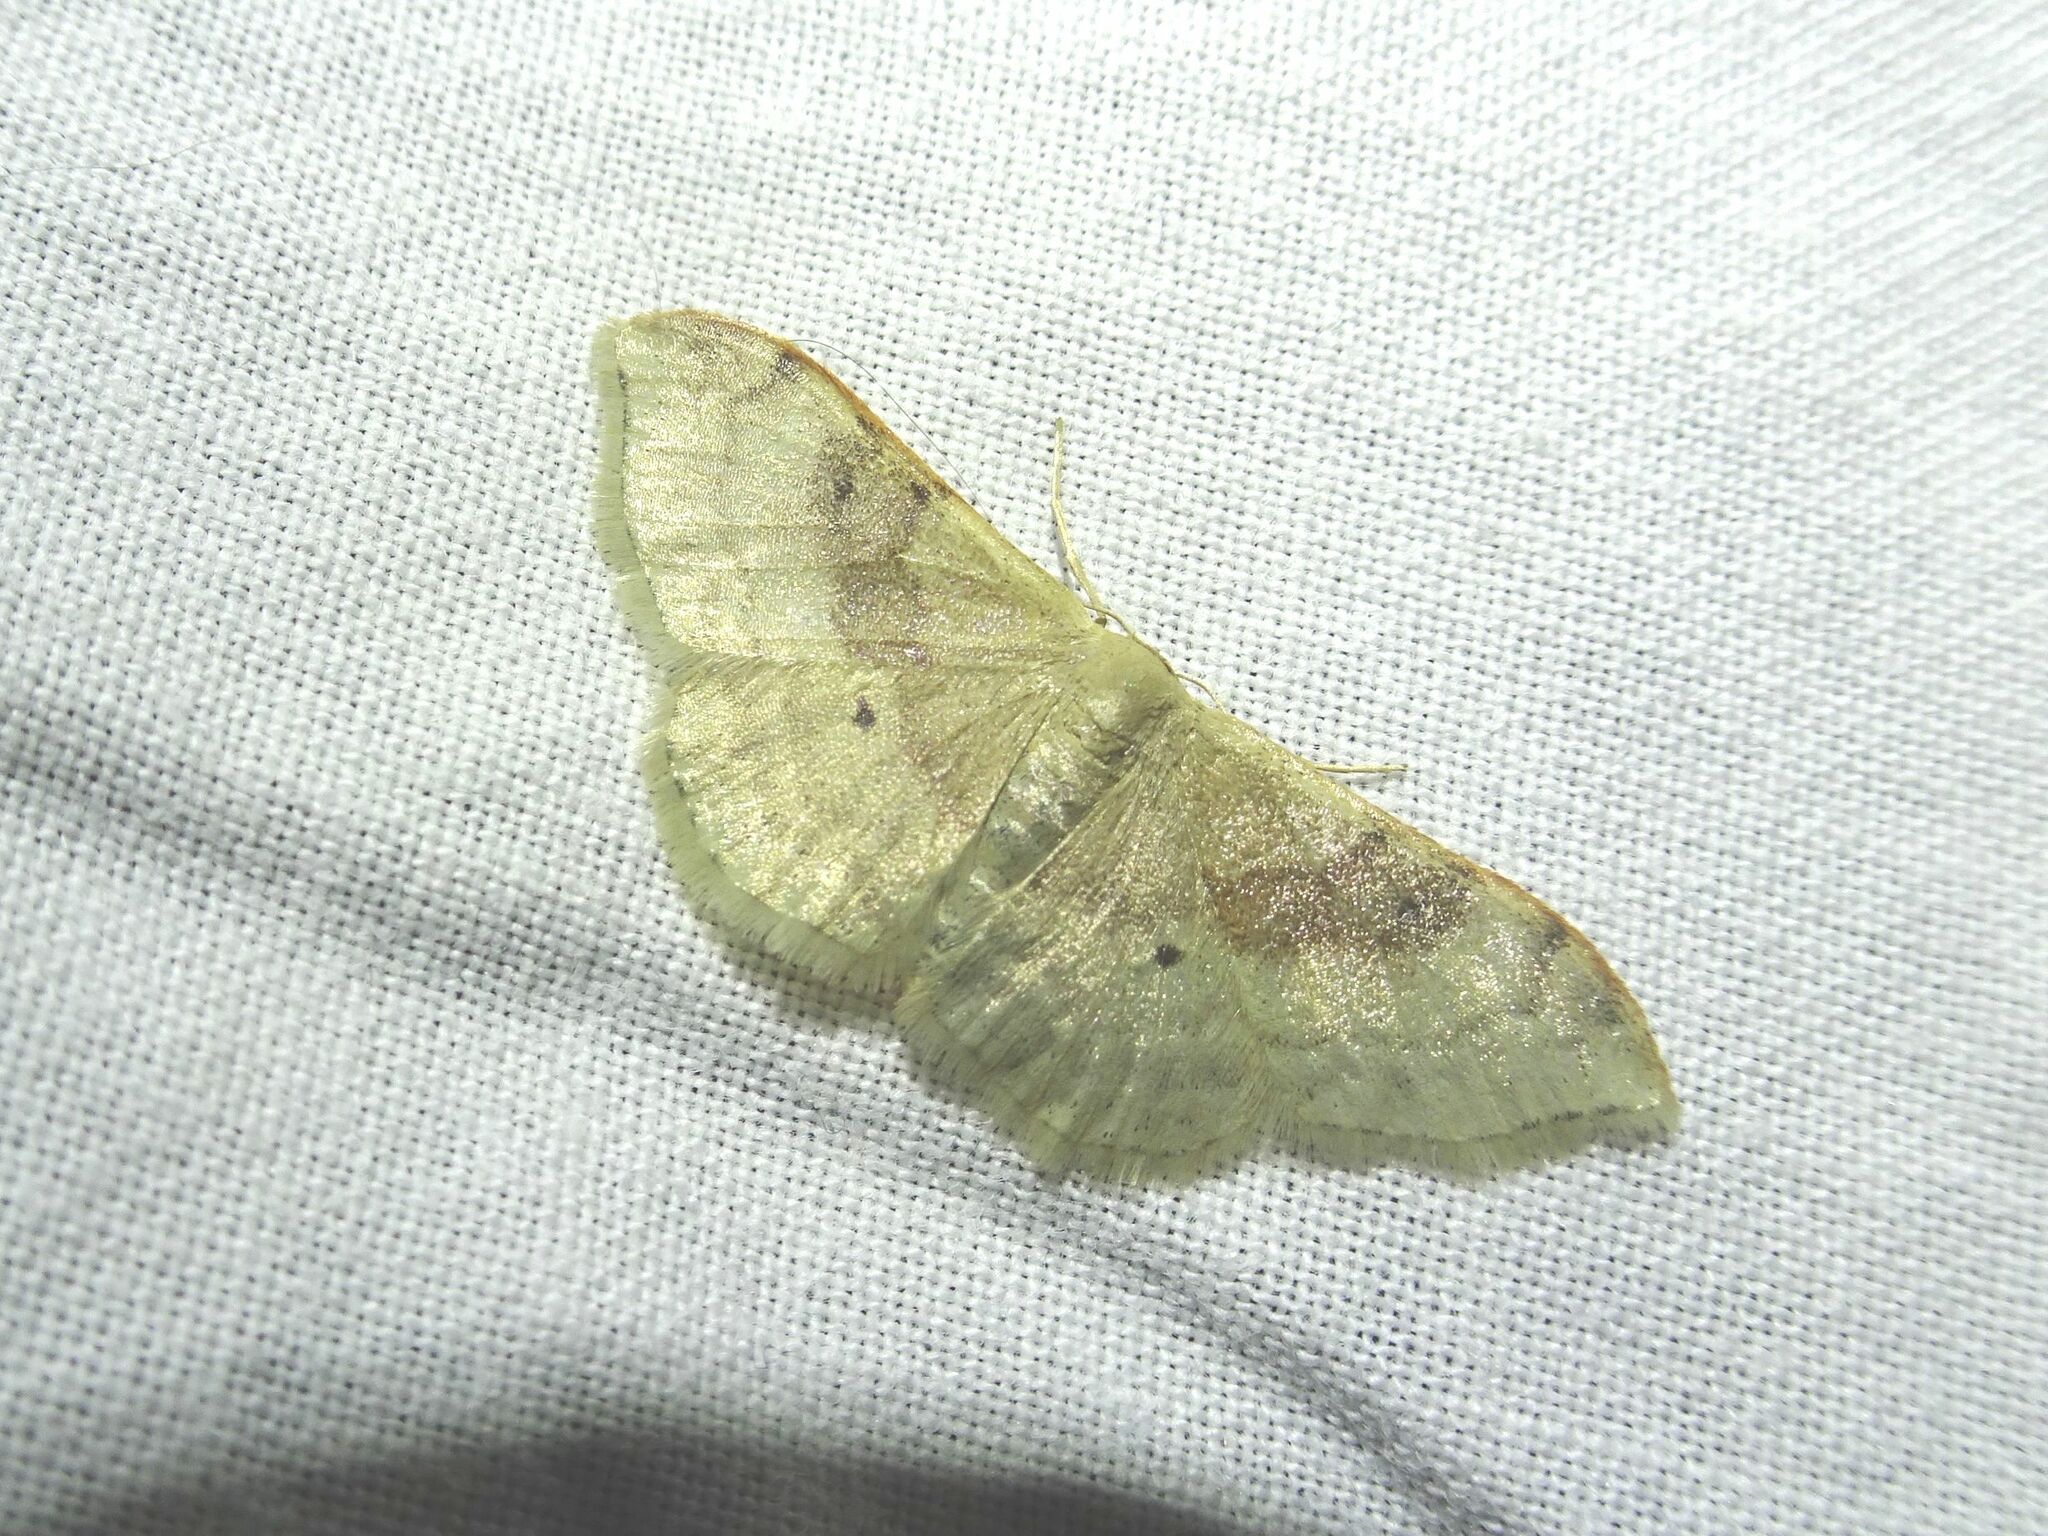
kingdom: Animalia
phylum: Arthropoda
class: Insecta
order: Lepidoptera
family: Geometridae
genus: Idaea
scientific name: Idaea degeneraria
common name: Portland ribbon wave
